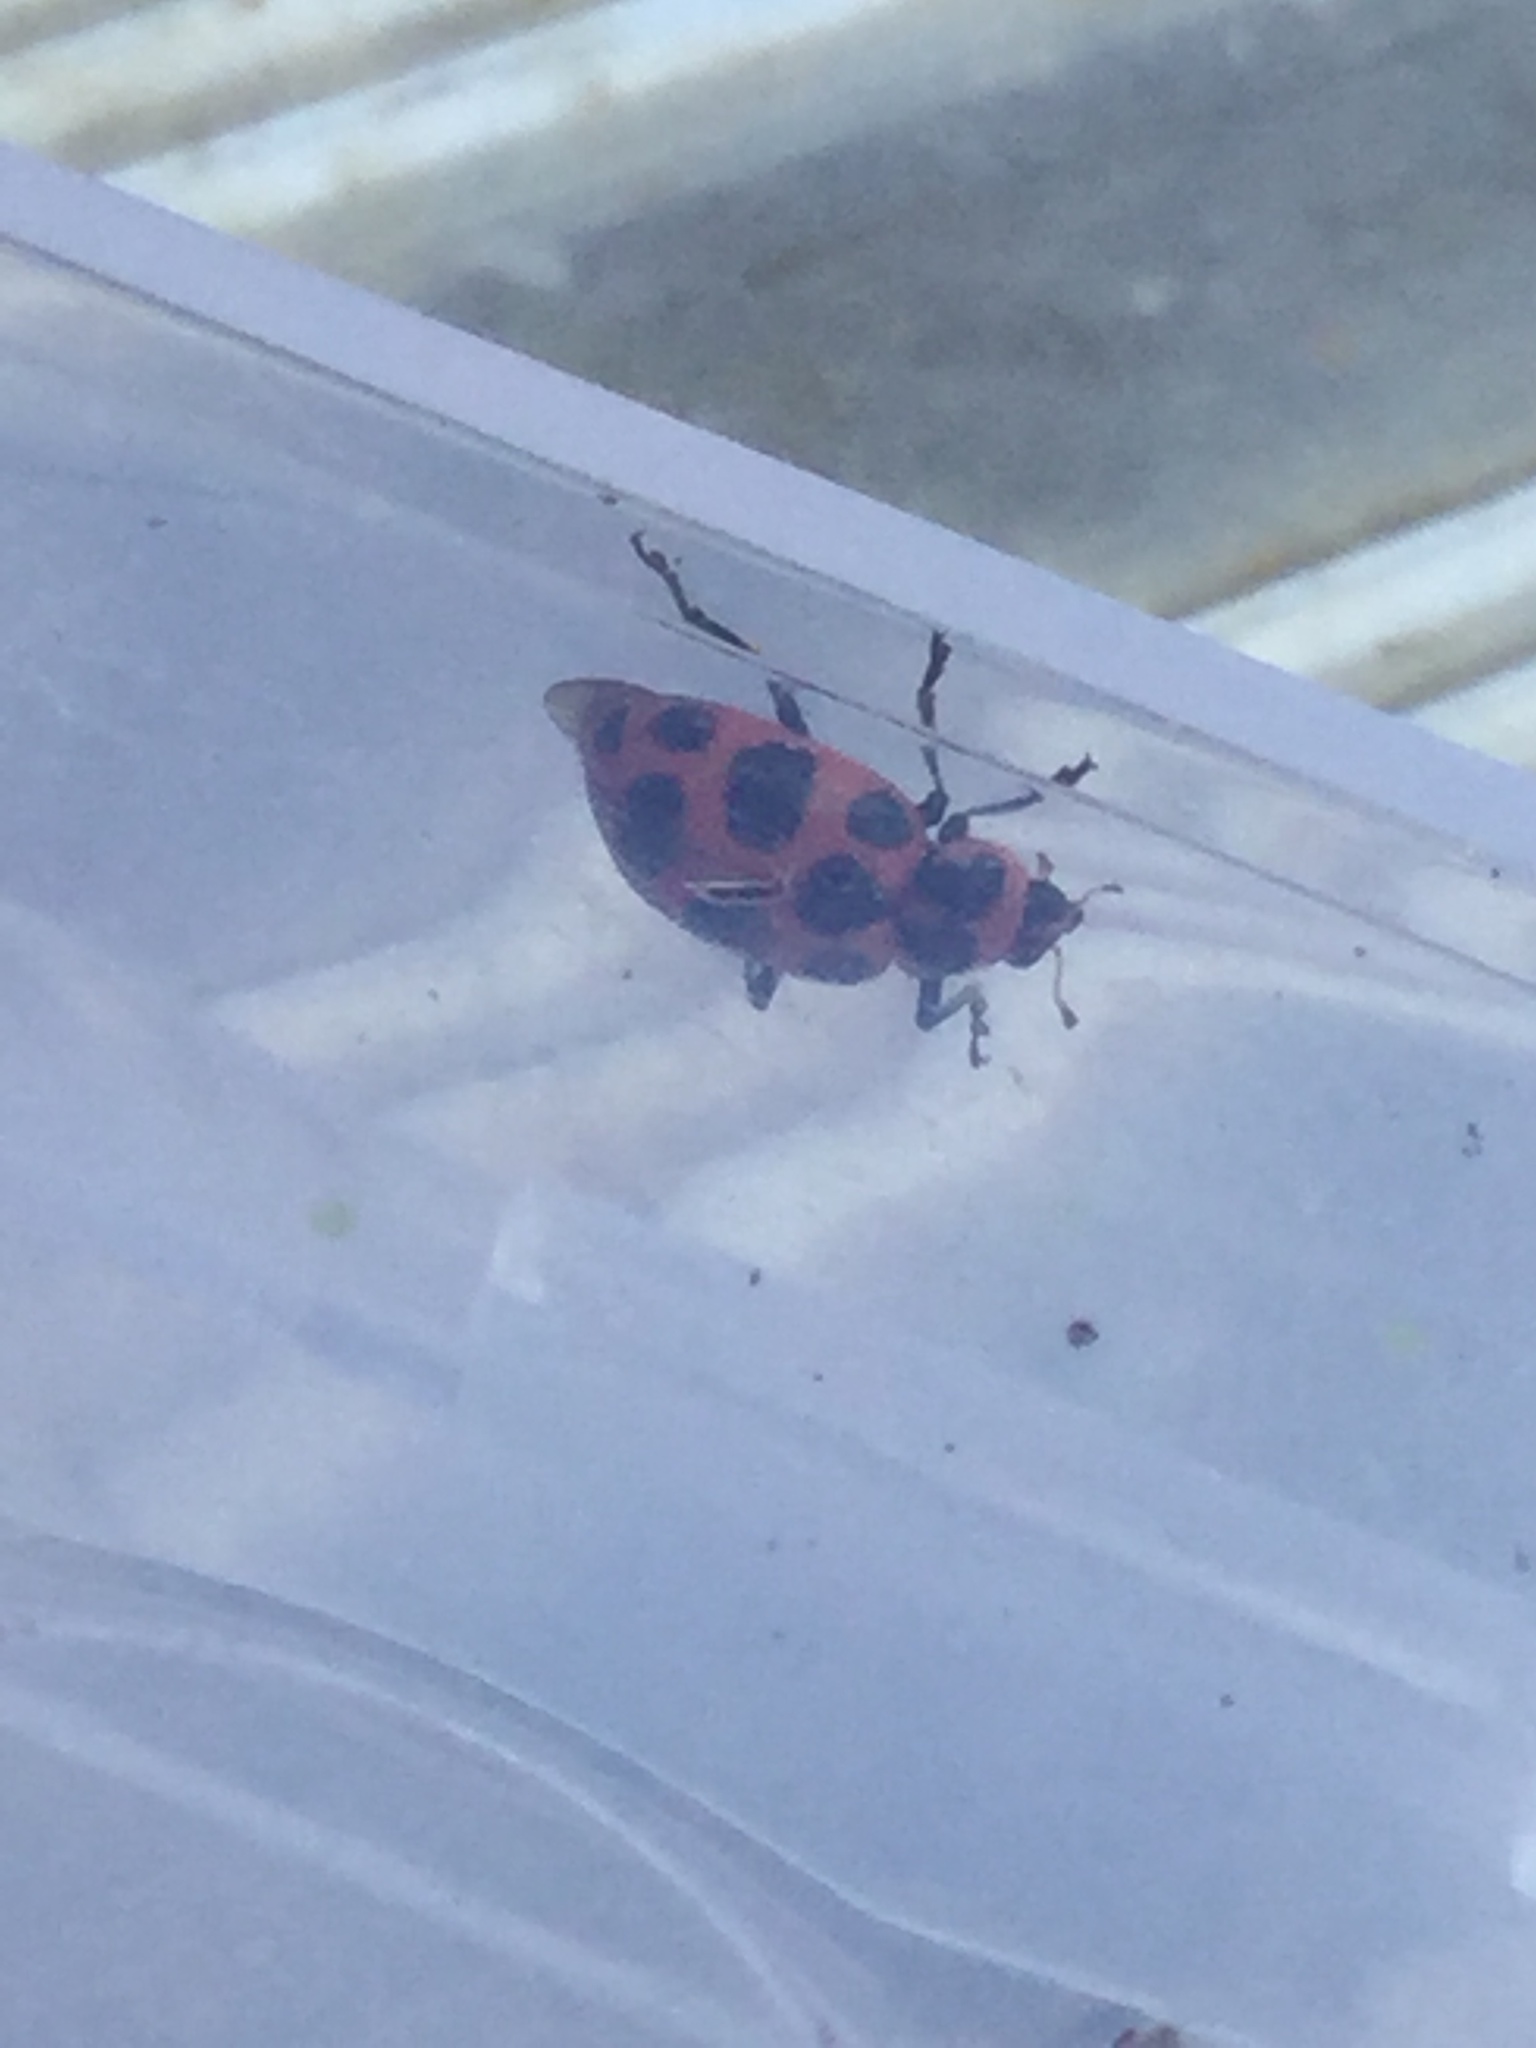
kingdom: Animalia
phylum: Arthropoda
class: Insecta
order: Coleoptera
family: Coccinellidae
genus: Coleomegilla
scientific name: Coleomegilla maculata
